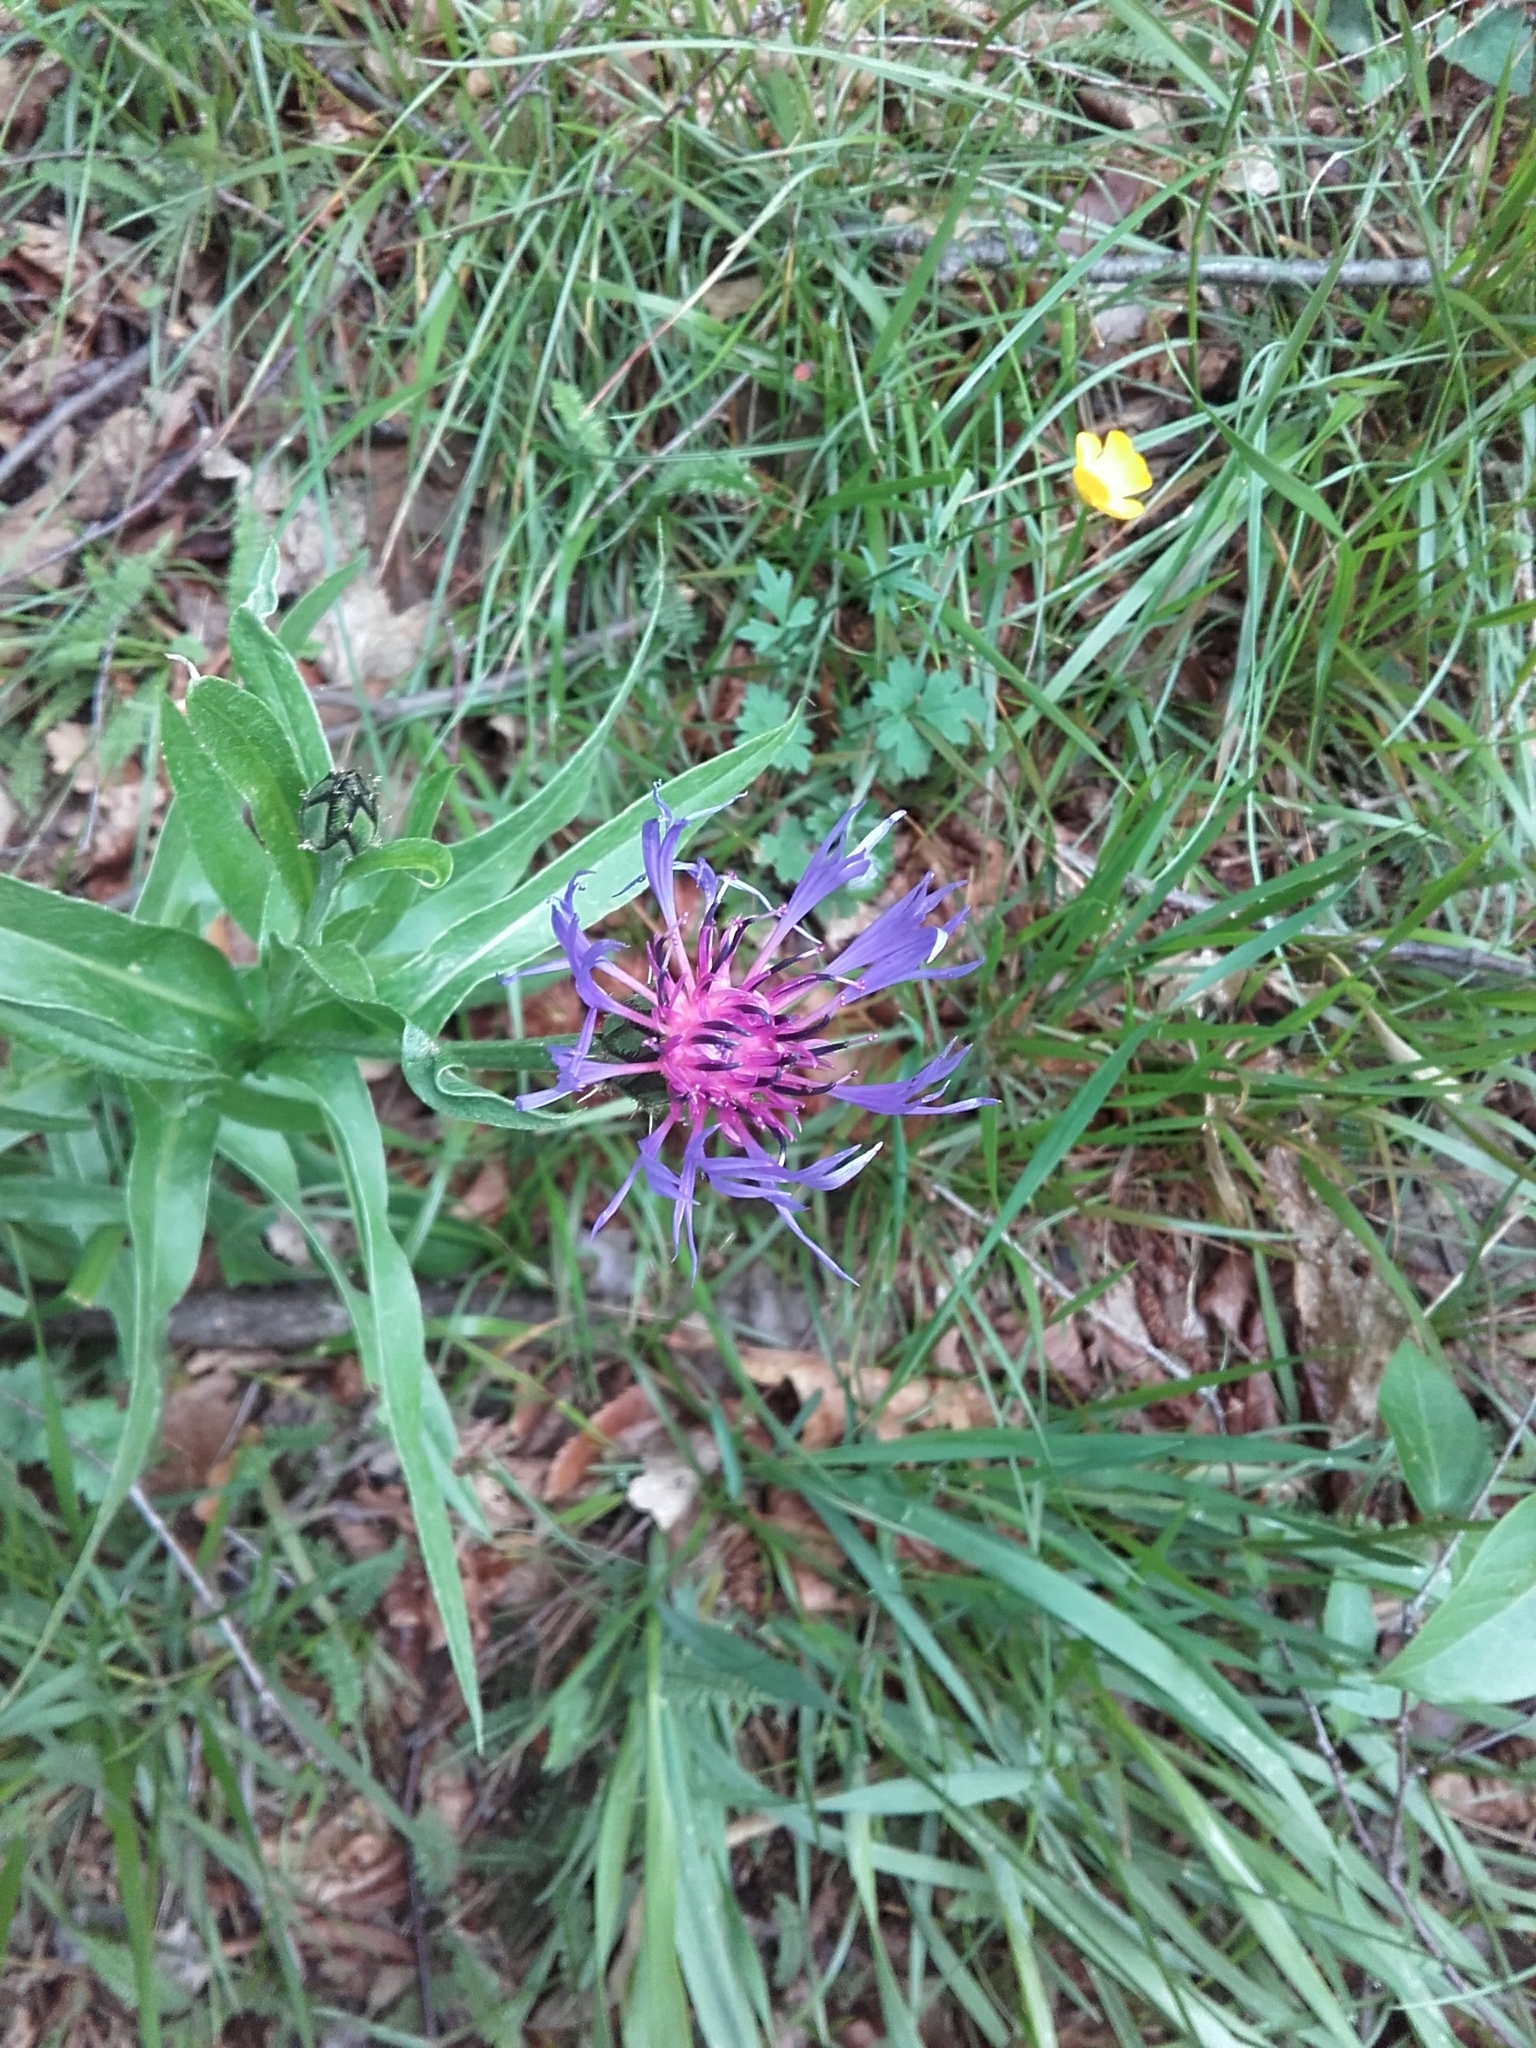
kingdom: Plantae
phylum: Tracheophyta
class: Magnoliopsida
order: Asterales
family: Asteraceae
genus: Centaurea
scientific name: Centaurea triumfettii
